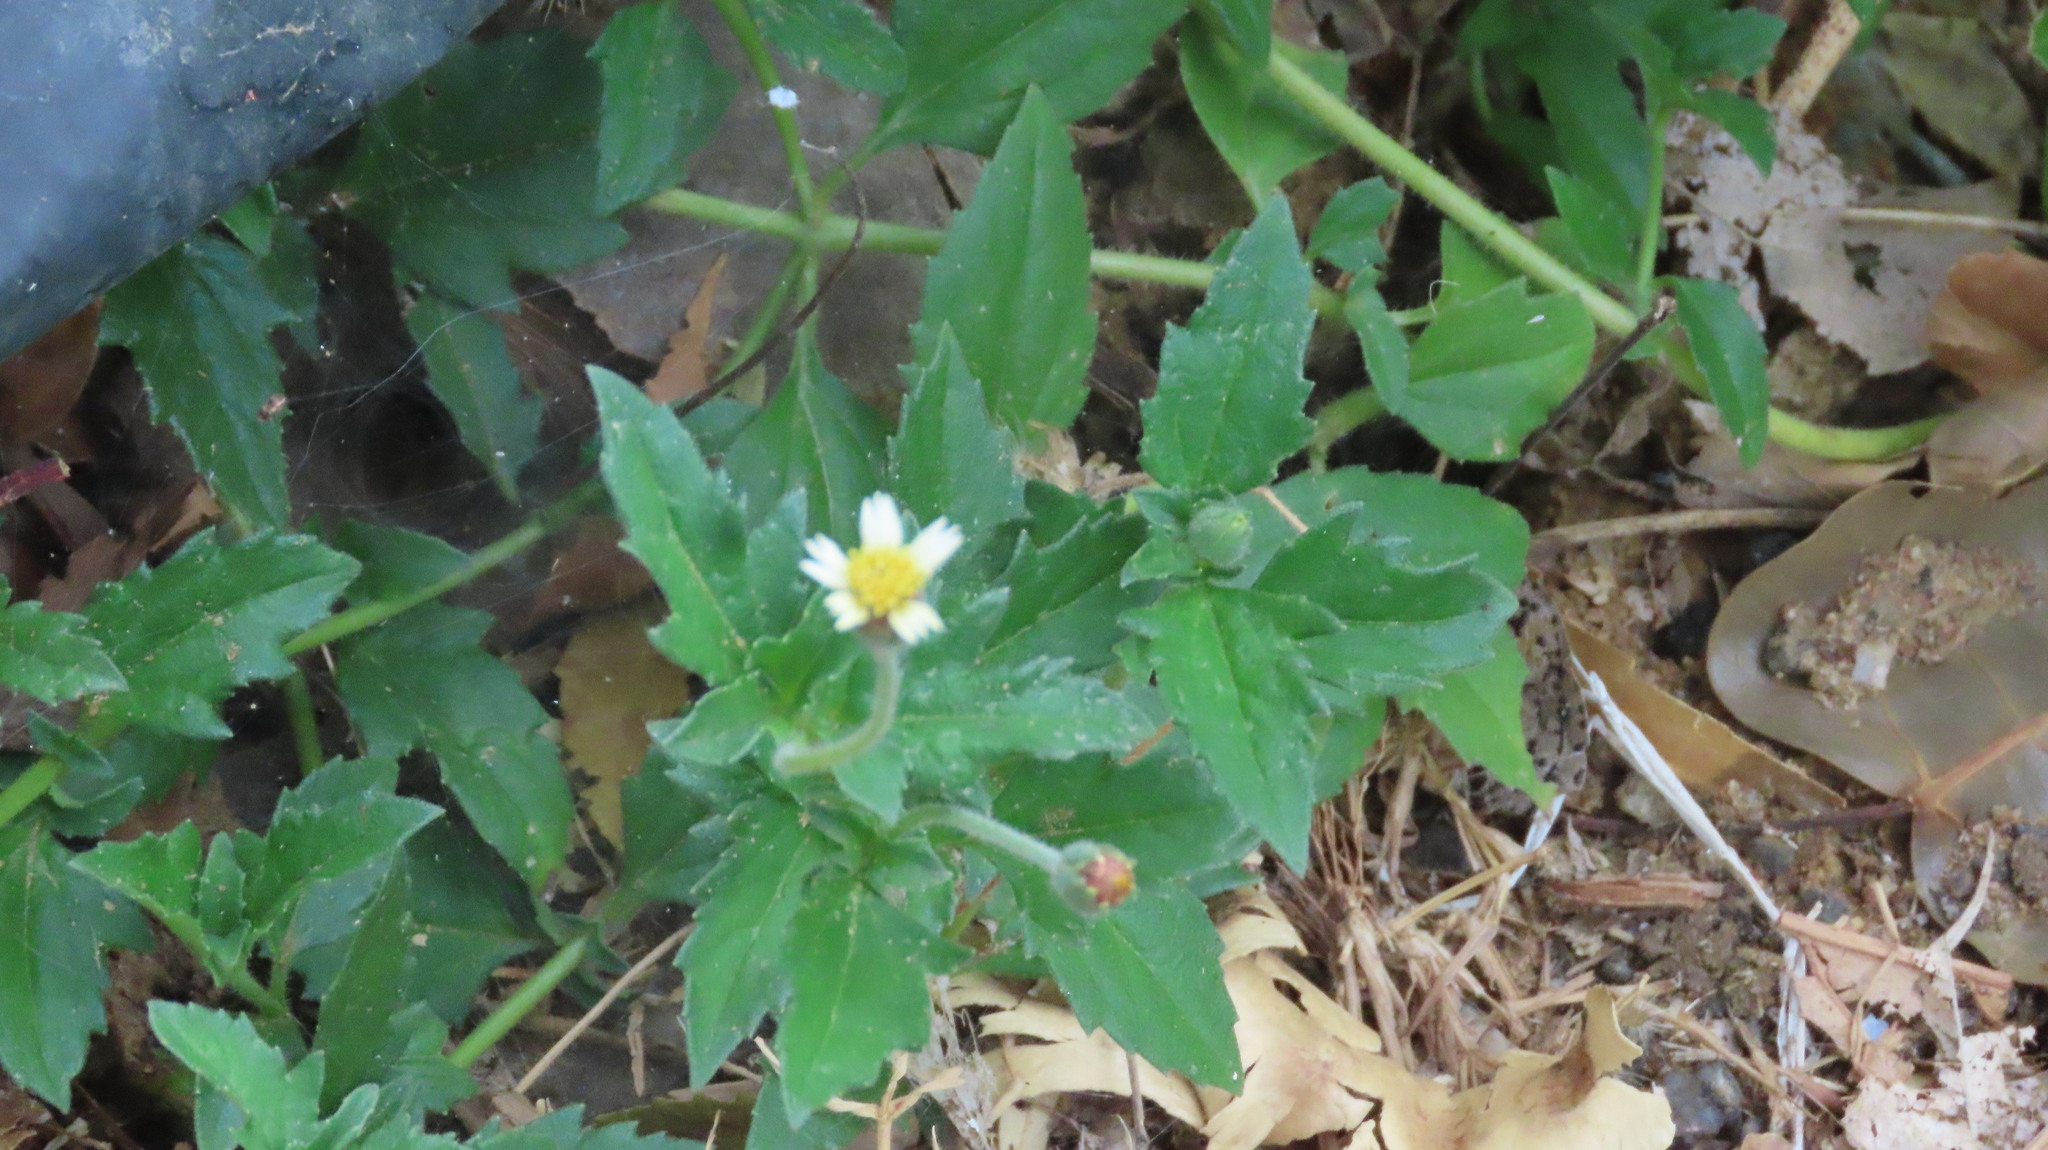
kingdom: Plantae
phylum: Tracheophyta
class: Magnoliopsida
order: Asterales
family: Asteraceae
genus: Tridax
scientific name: Tridax procumbens
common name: Coatbuttons
